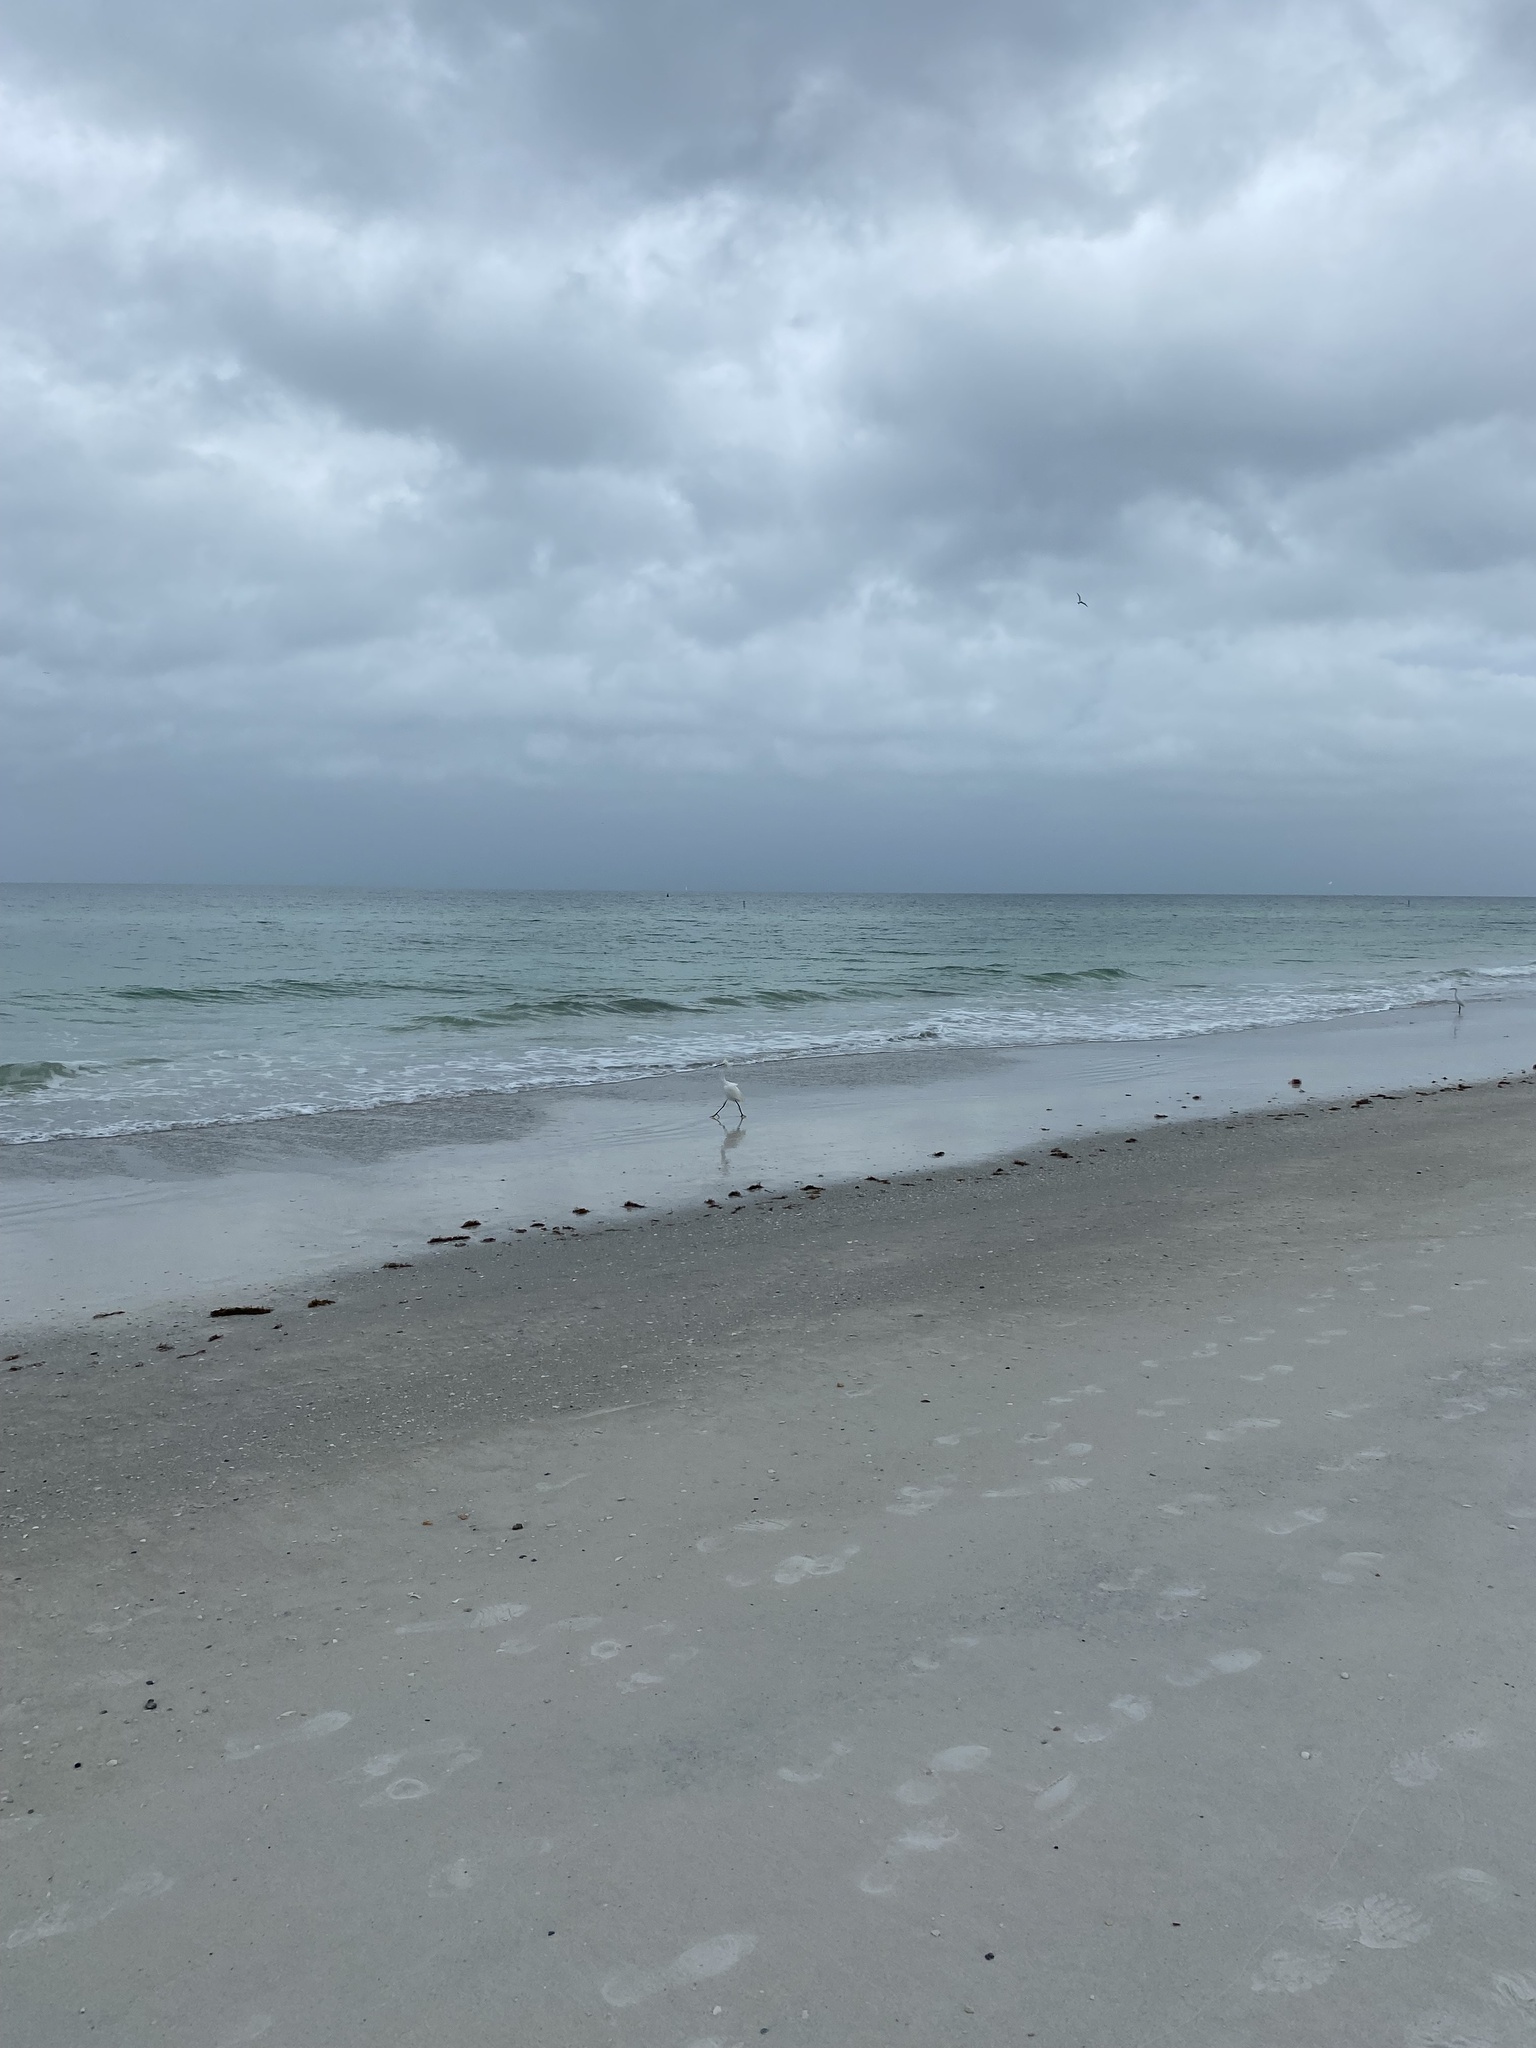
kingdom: Animalia
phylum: Chordata
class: Aves
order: Pelecaniformes
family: Ardeidae
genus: Egretta
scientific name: Egretta thula
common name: Snowy egret
